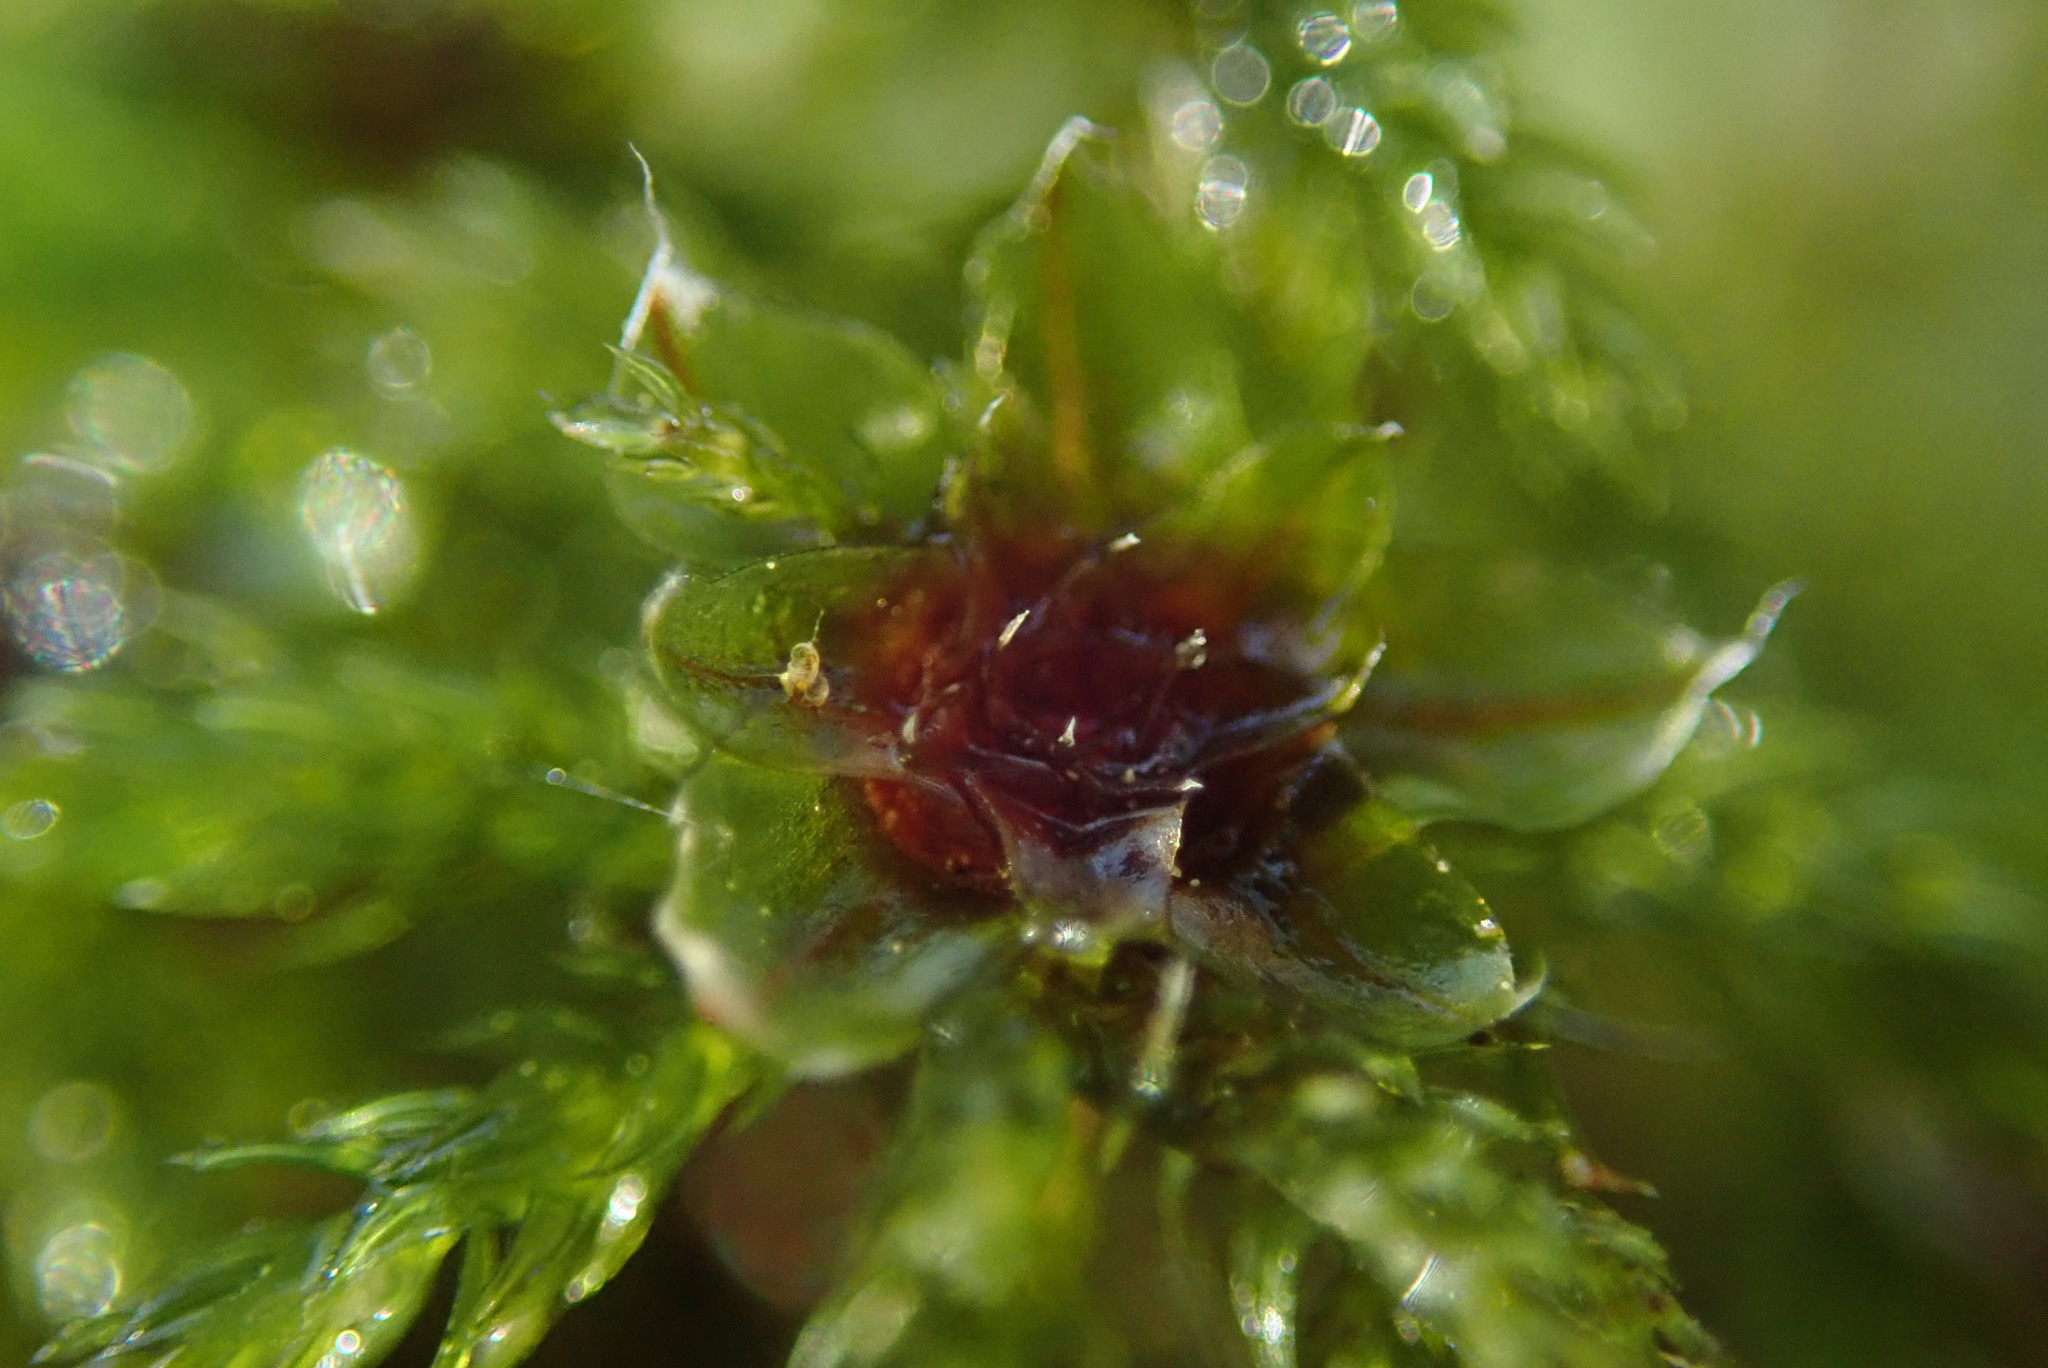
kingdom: Plantae
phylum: Bryophyta
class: Bryopsida
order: Bryales
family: Mniaceae
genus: Leucolepis
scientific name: Leucolepis acanthoneura
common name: Leucolepis umbrella moss
